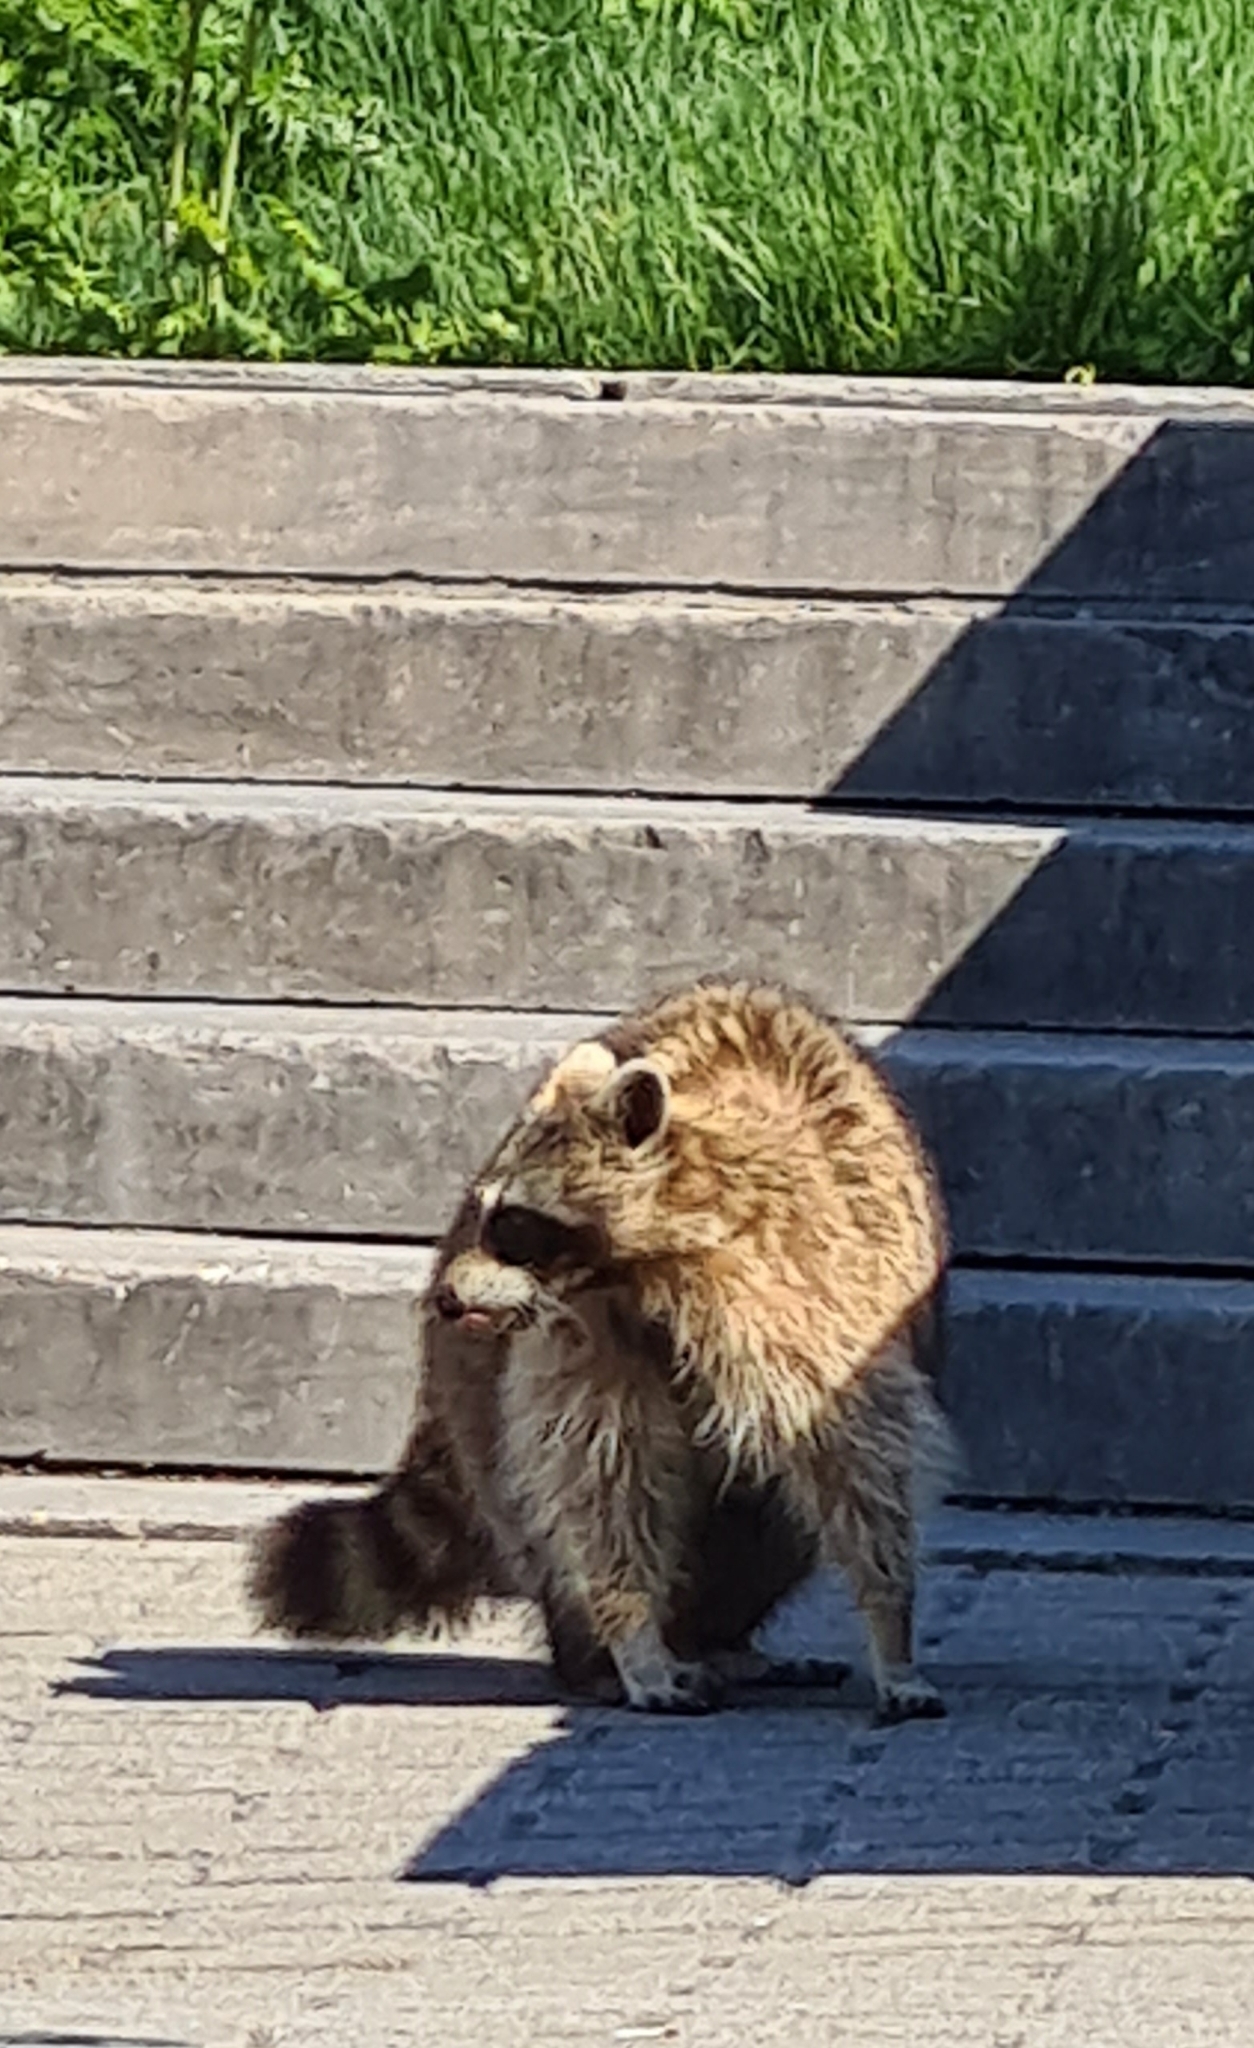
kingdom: Animalia
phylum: Chordata
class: Mammalia
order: Carnivora
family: Procyonidae
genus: Procyon
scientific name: Procyon lotor
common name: Raccoon
